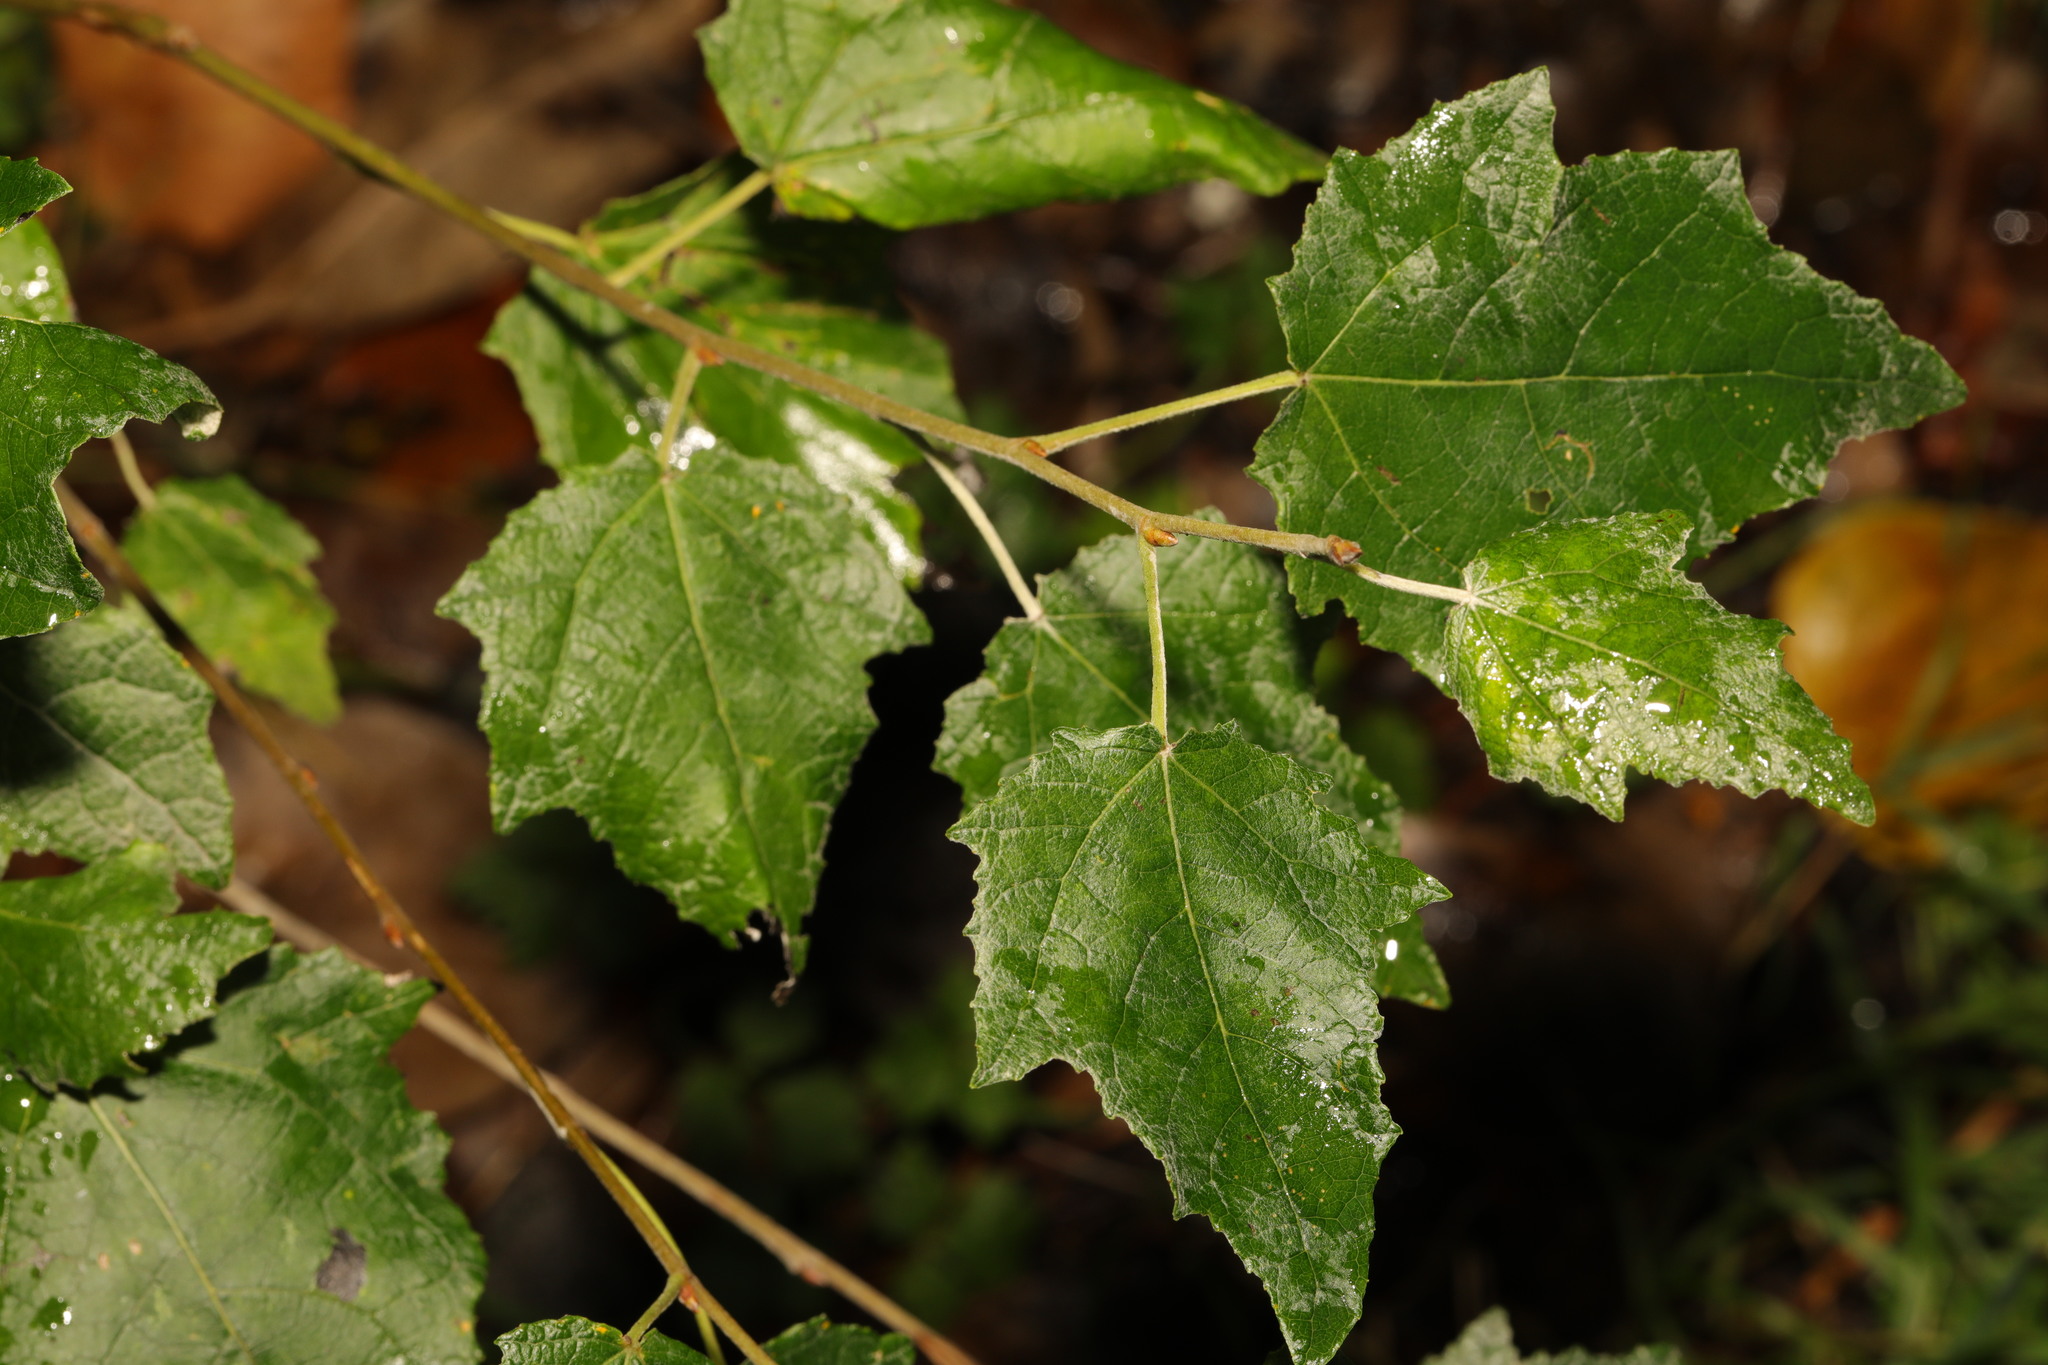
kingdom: Plantae
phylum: Tracheophyta
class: Magnoliopsida
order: Malpighiales
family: Salicaceae
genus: Populus
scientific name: Populus alba
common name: White poplar
